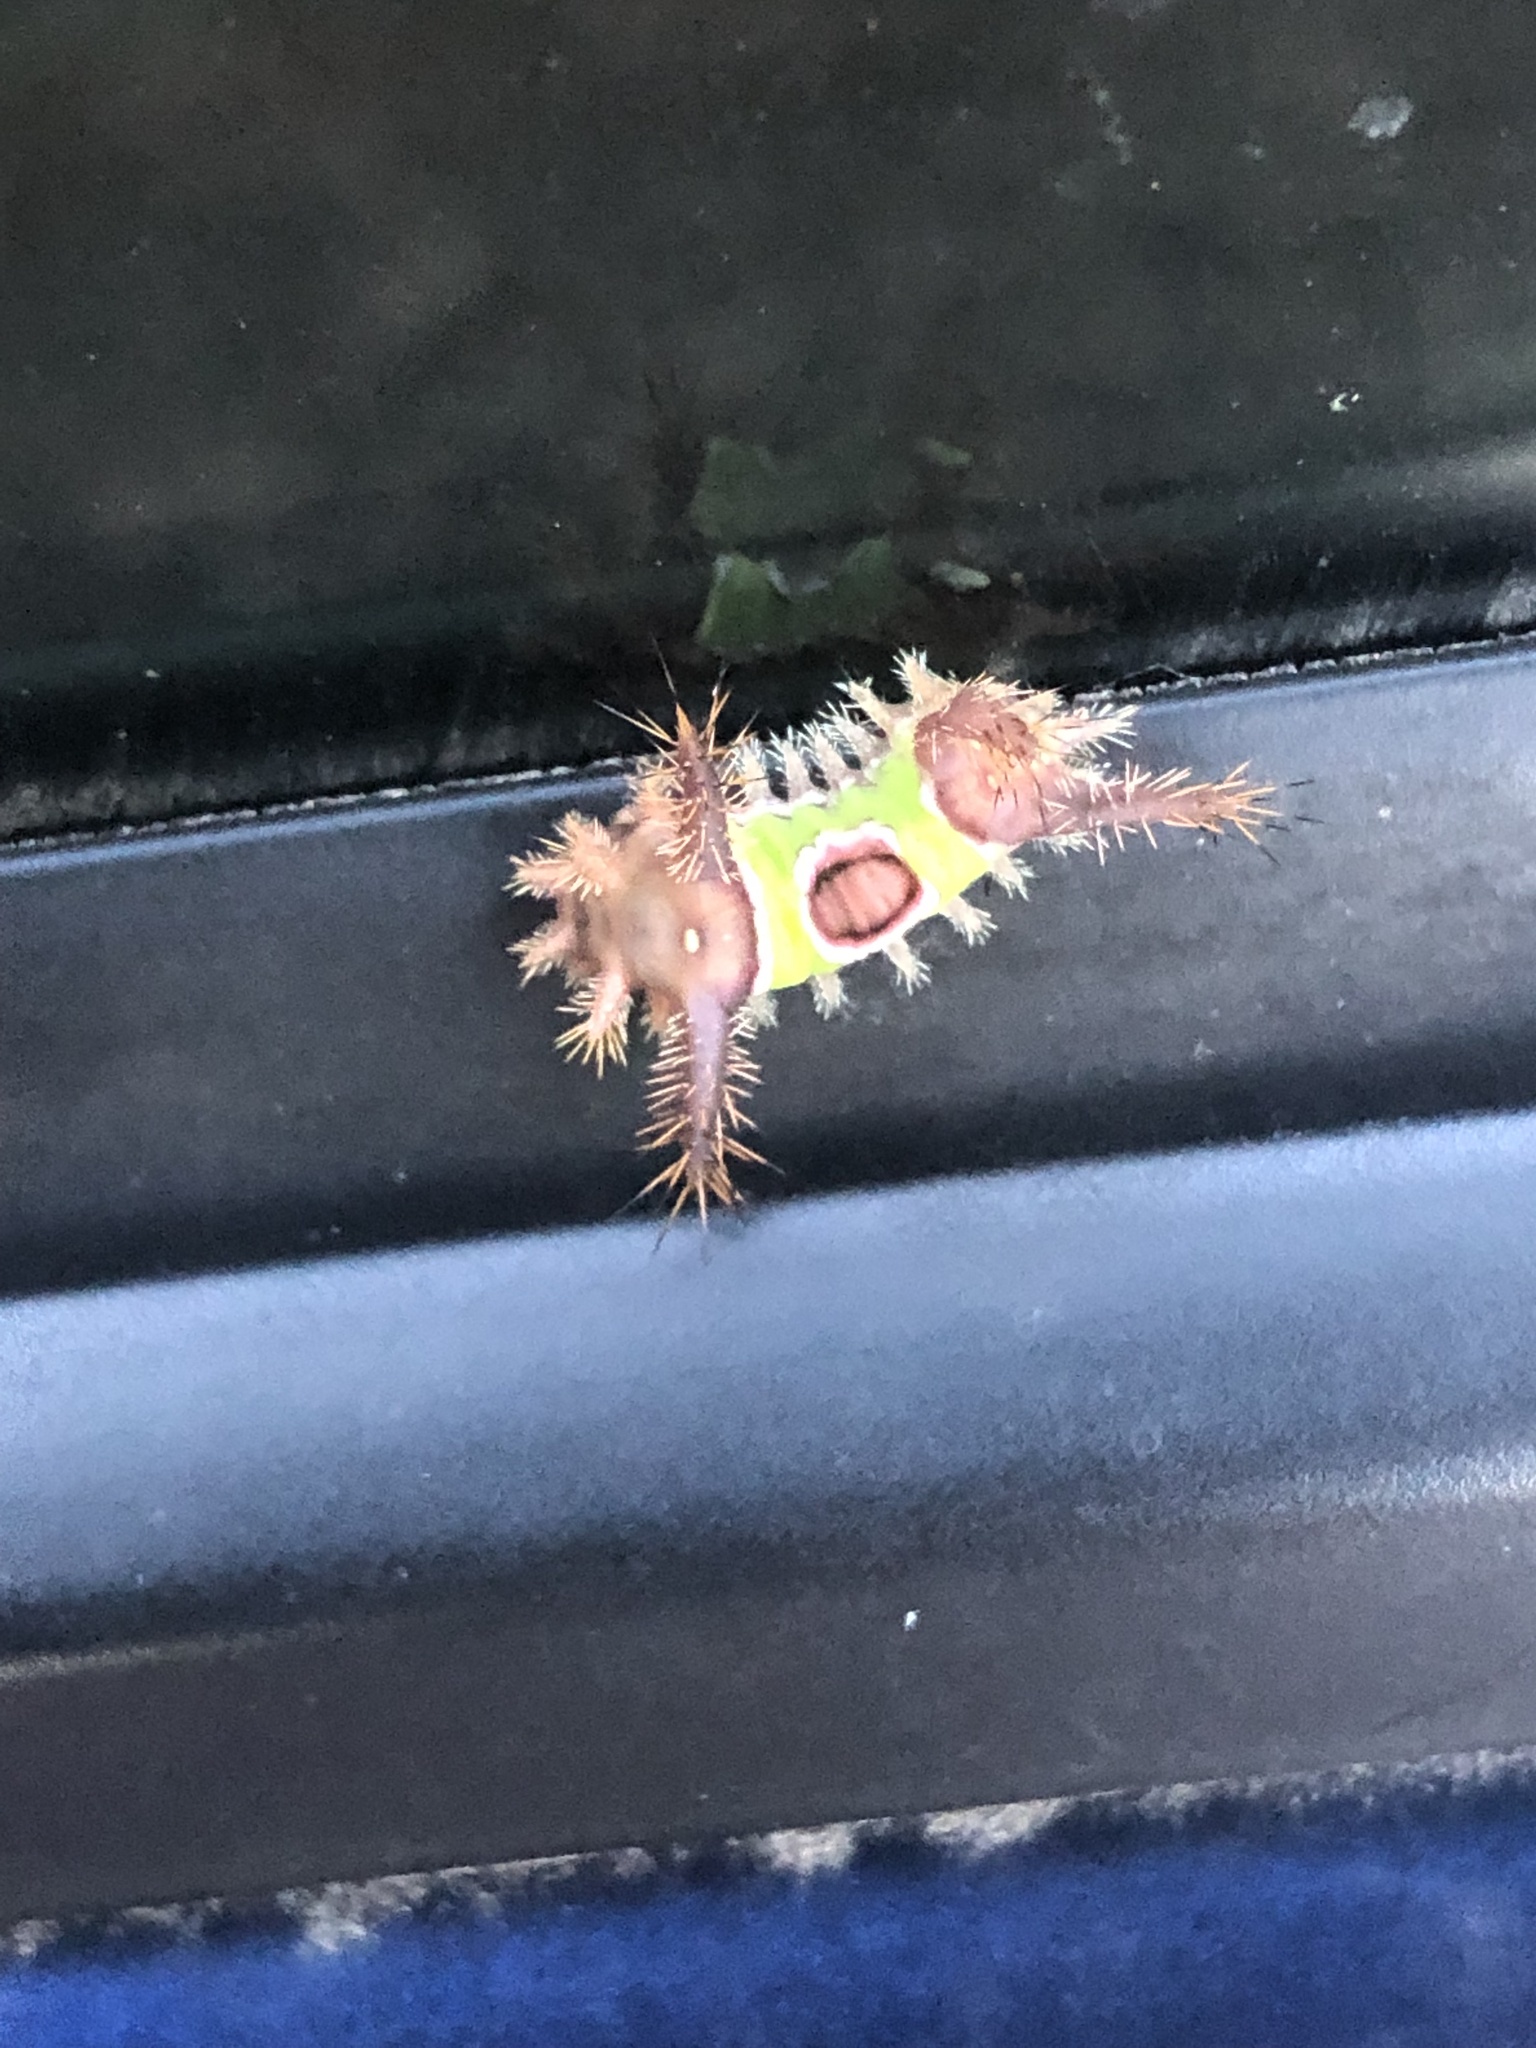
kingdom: Animalia
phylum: Arthropoda
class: Insecta
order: Lepidoptera
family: Limacodidae
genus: Acharia
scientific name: Acharia stimulea
